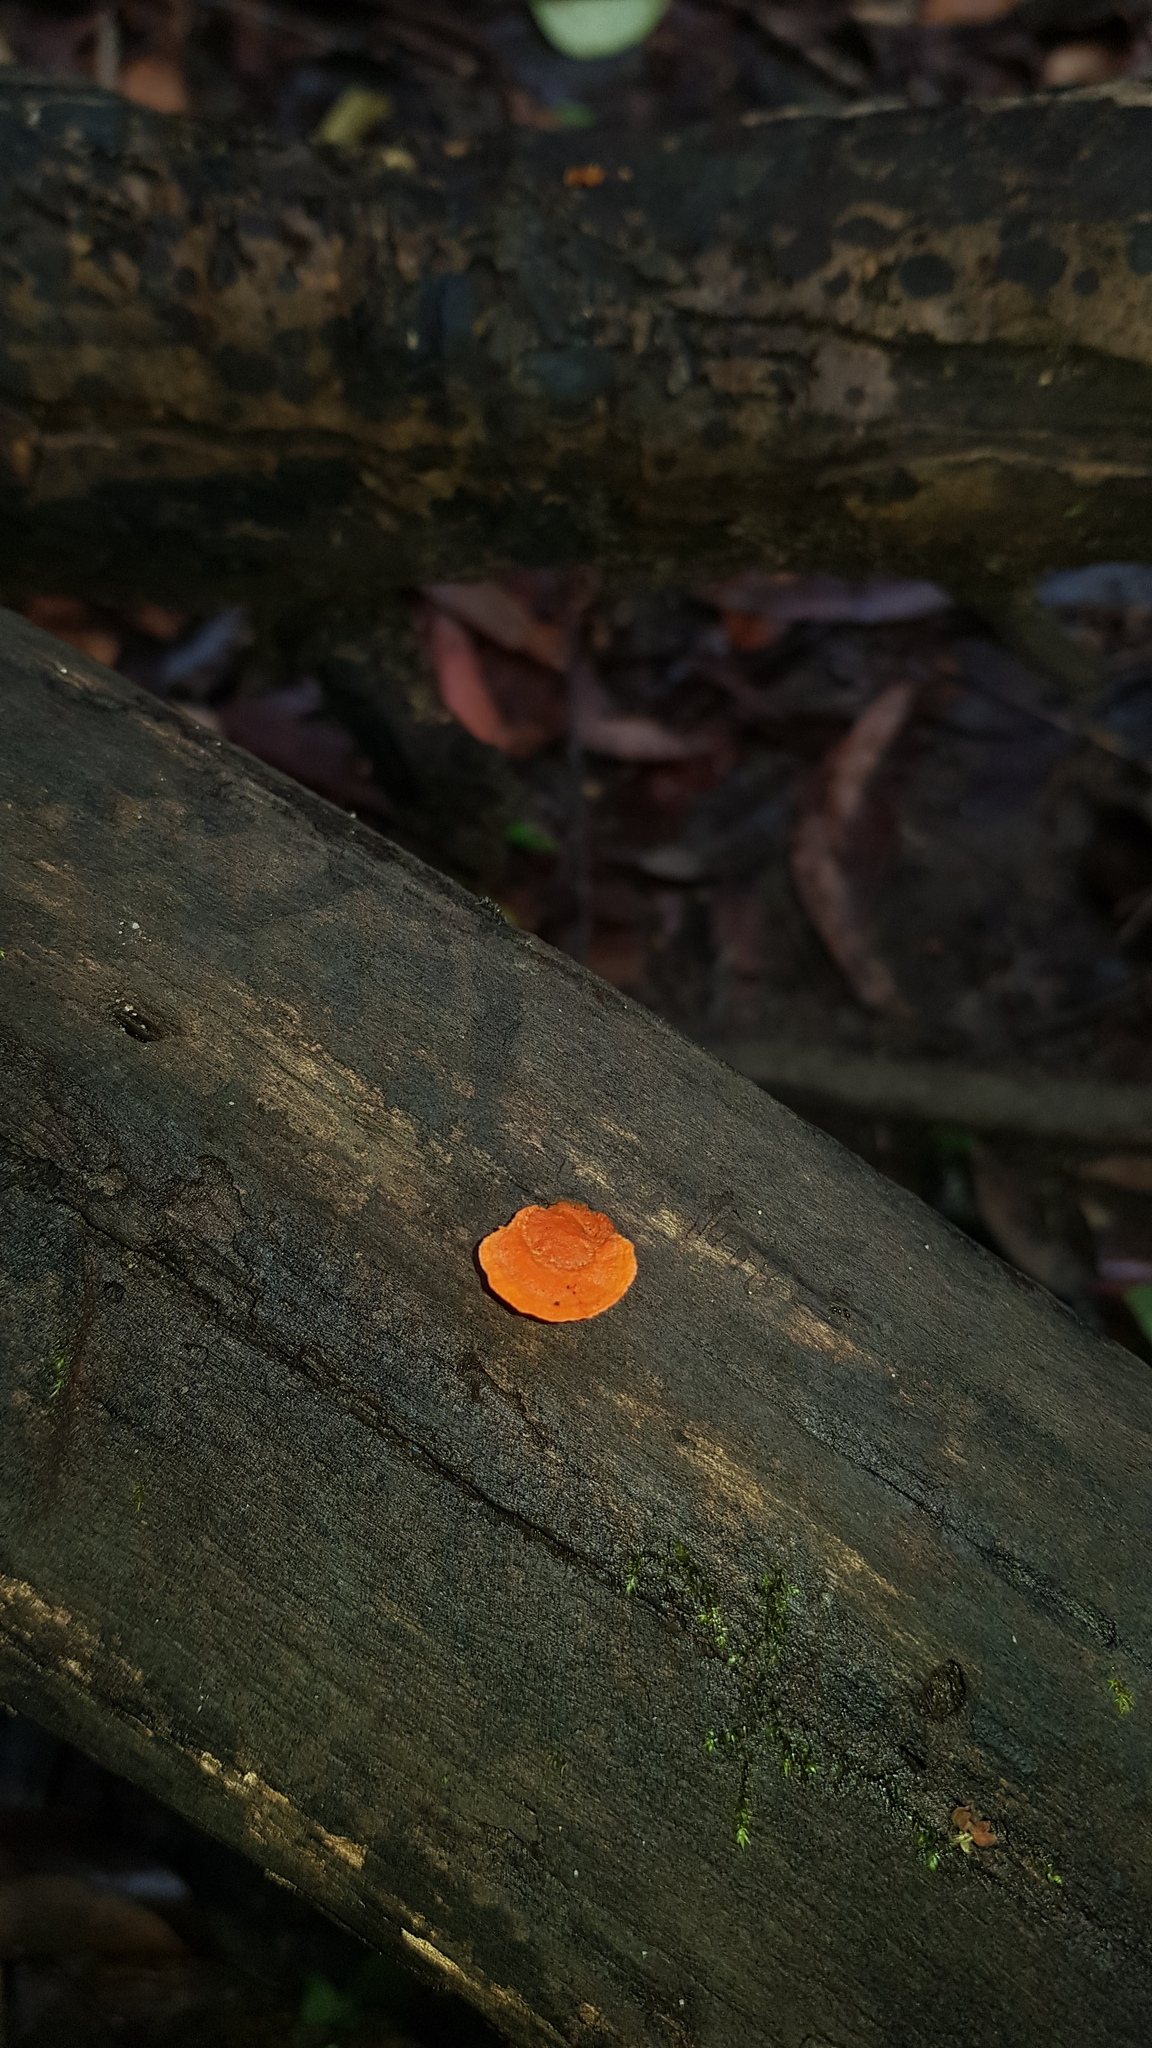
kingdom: Fungi
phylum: Basidiomycota
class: Agaricomycetes
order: Polyporales
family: Polyporaceae
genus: Trametes
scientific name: Trametes coccinea
